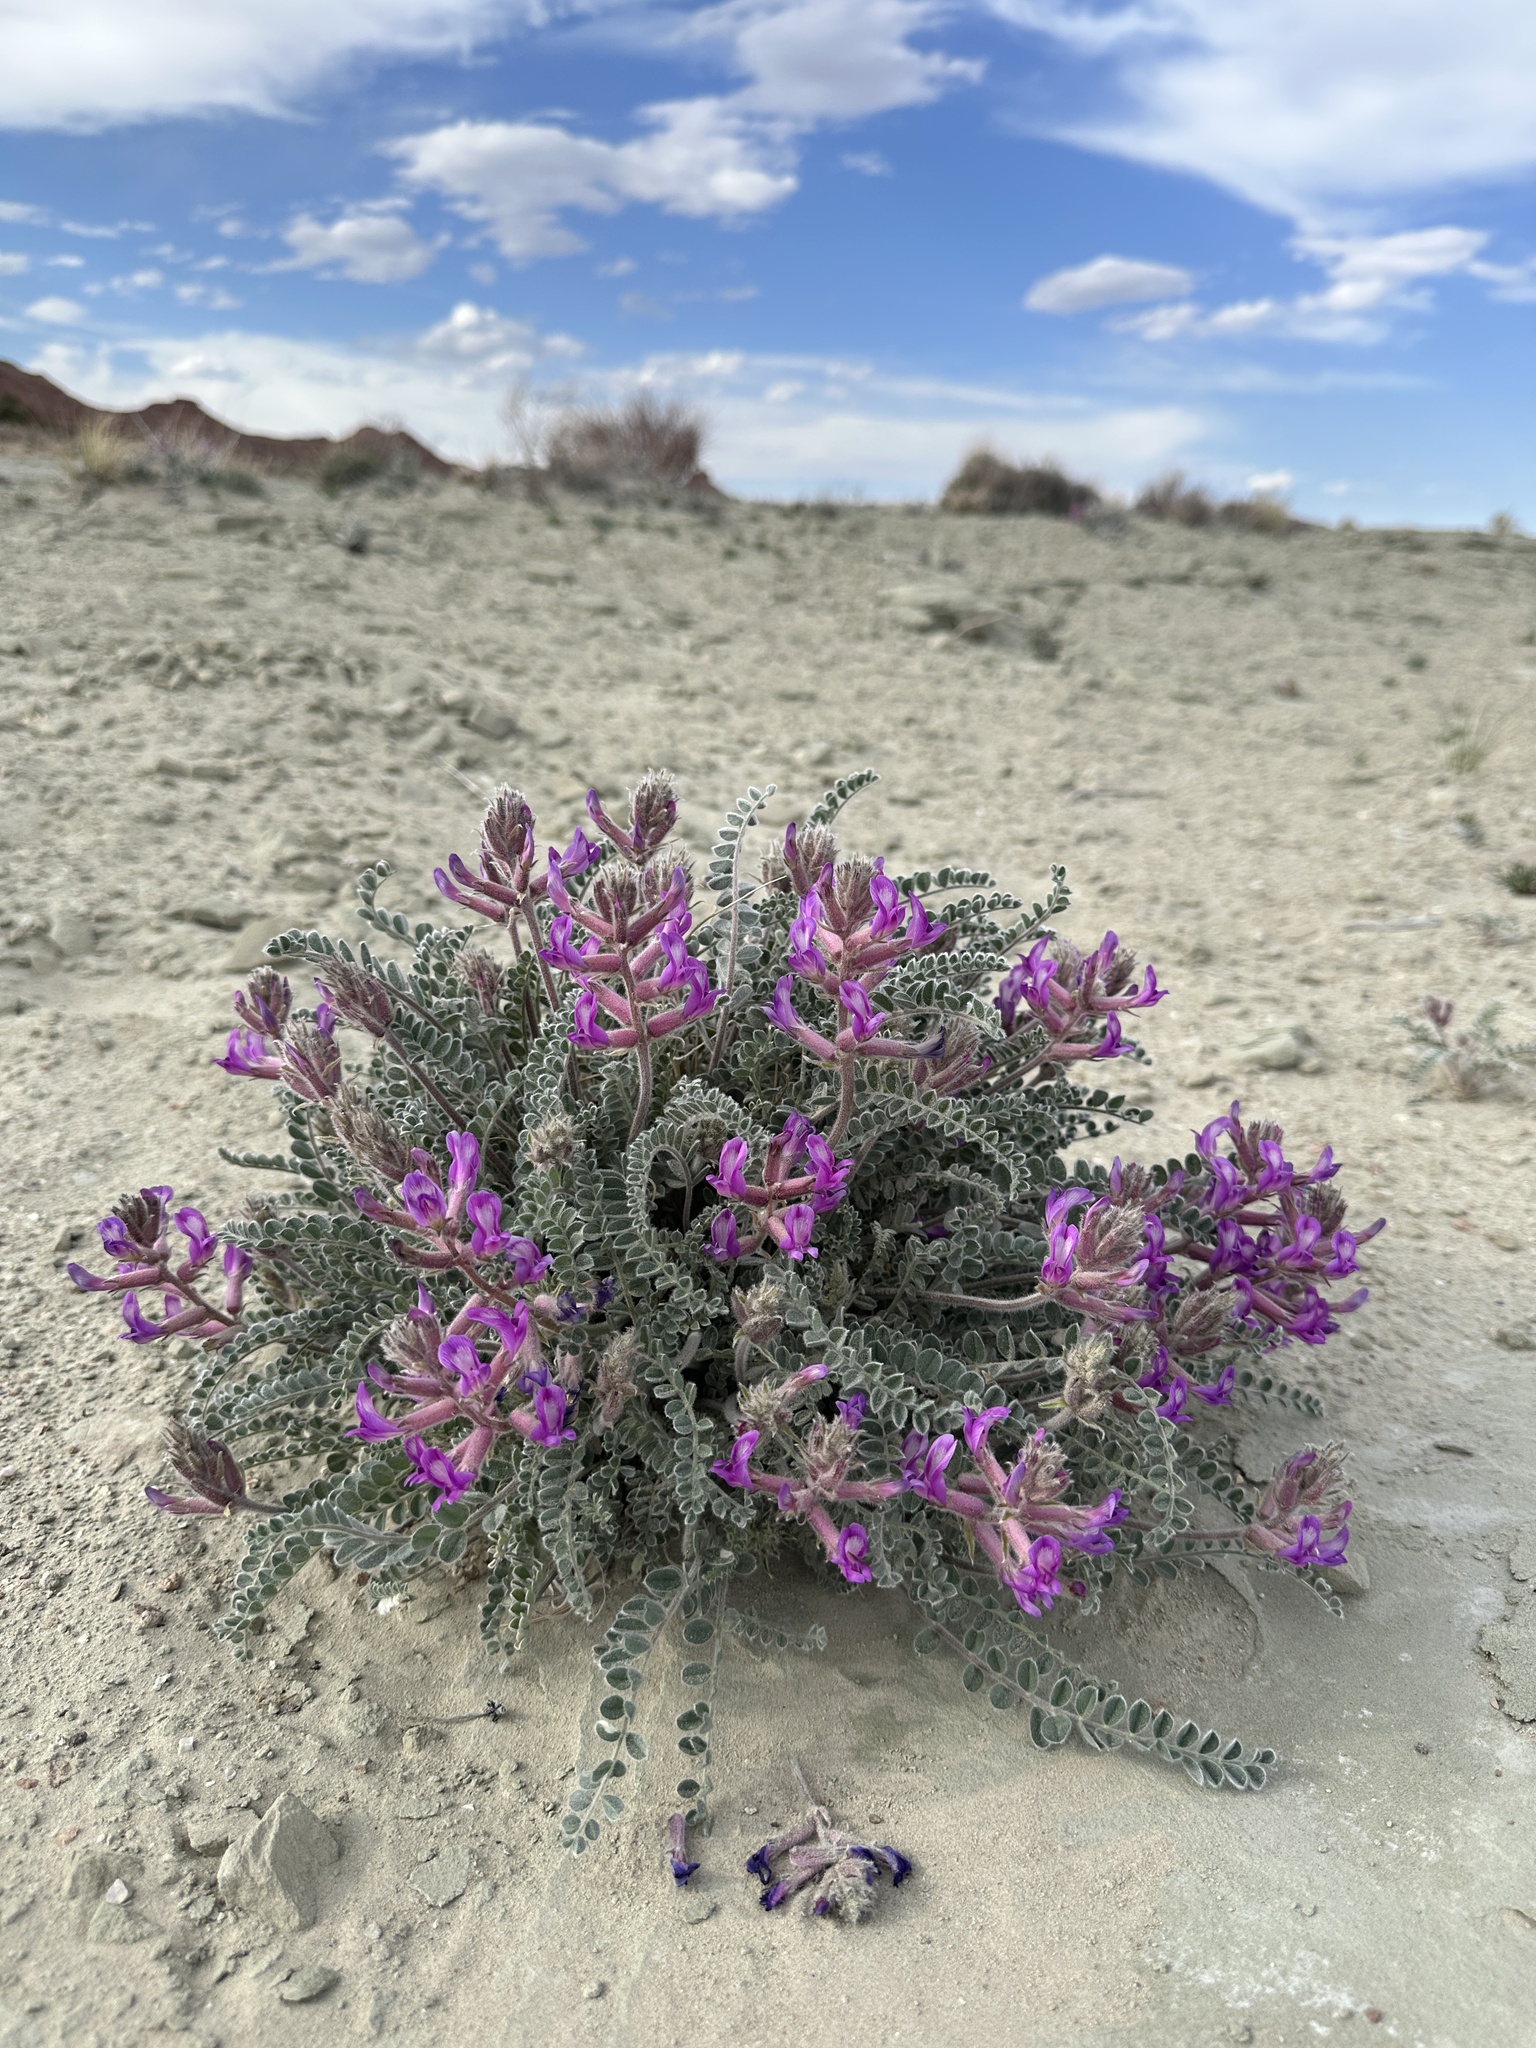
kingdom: Plantae
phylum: Tracheophyta
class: Magnoliopsida
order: Fabales
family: Fabaceae
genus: Astragalus
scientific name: Astragalus mollissimus
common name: Woolly locoweed
